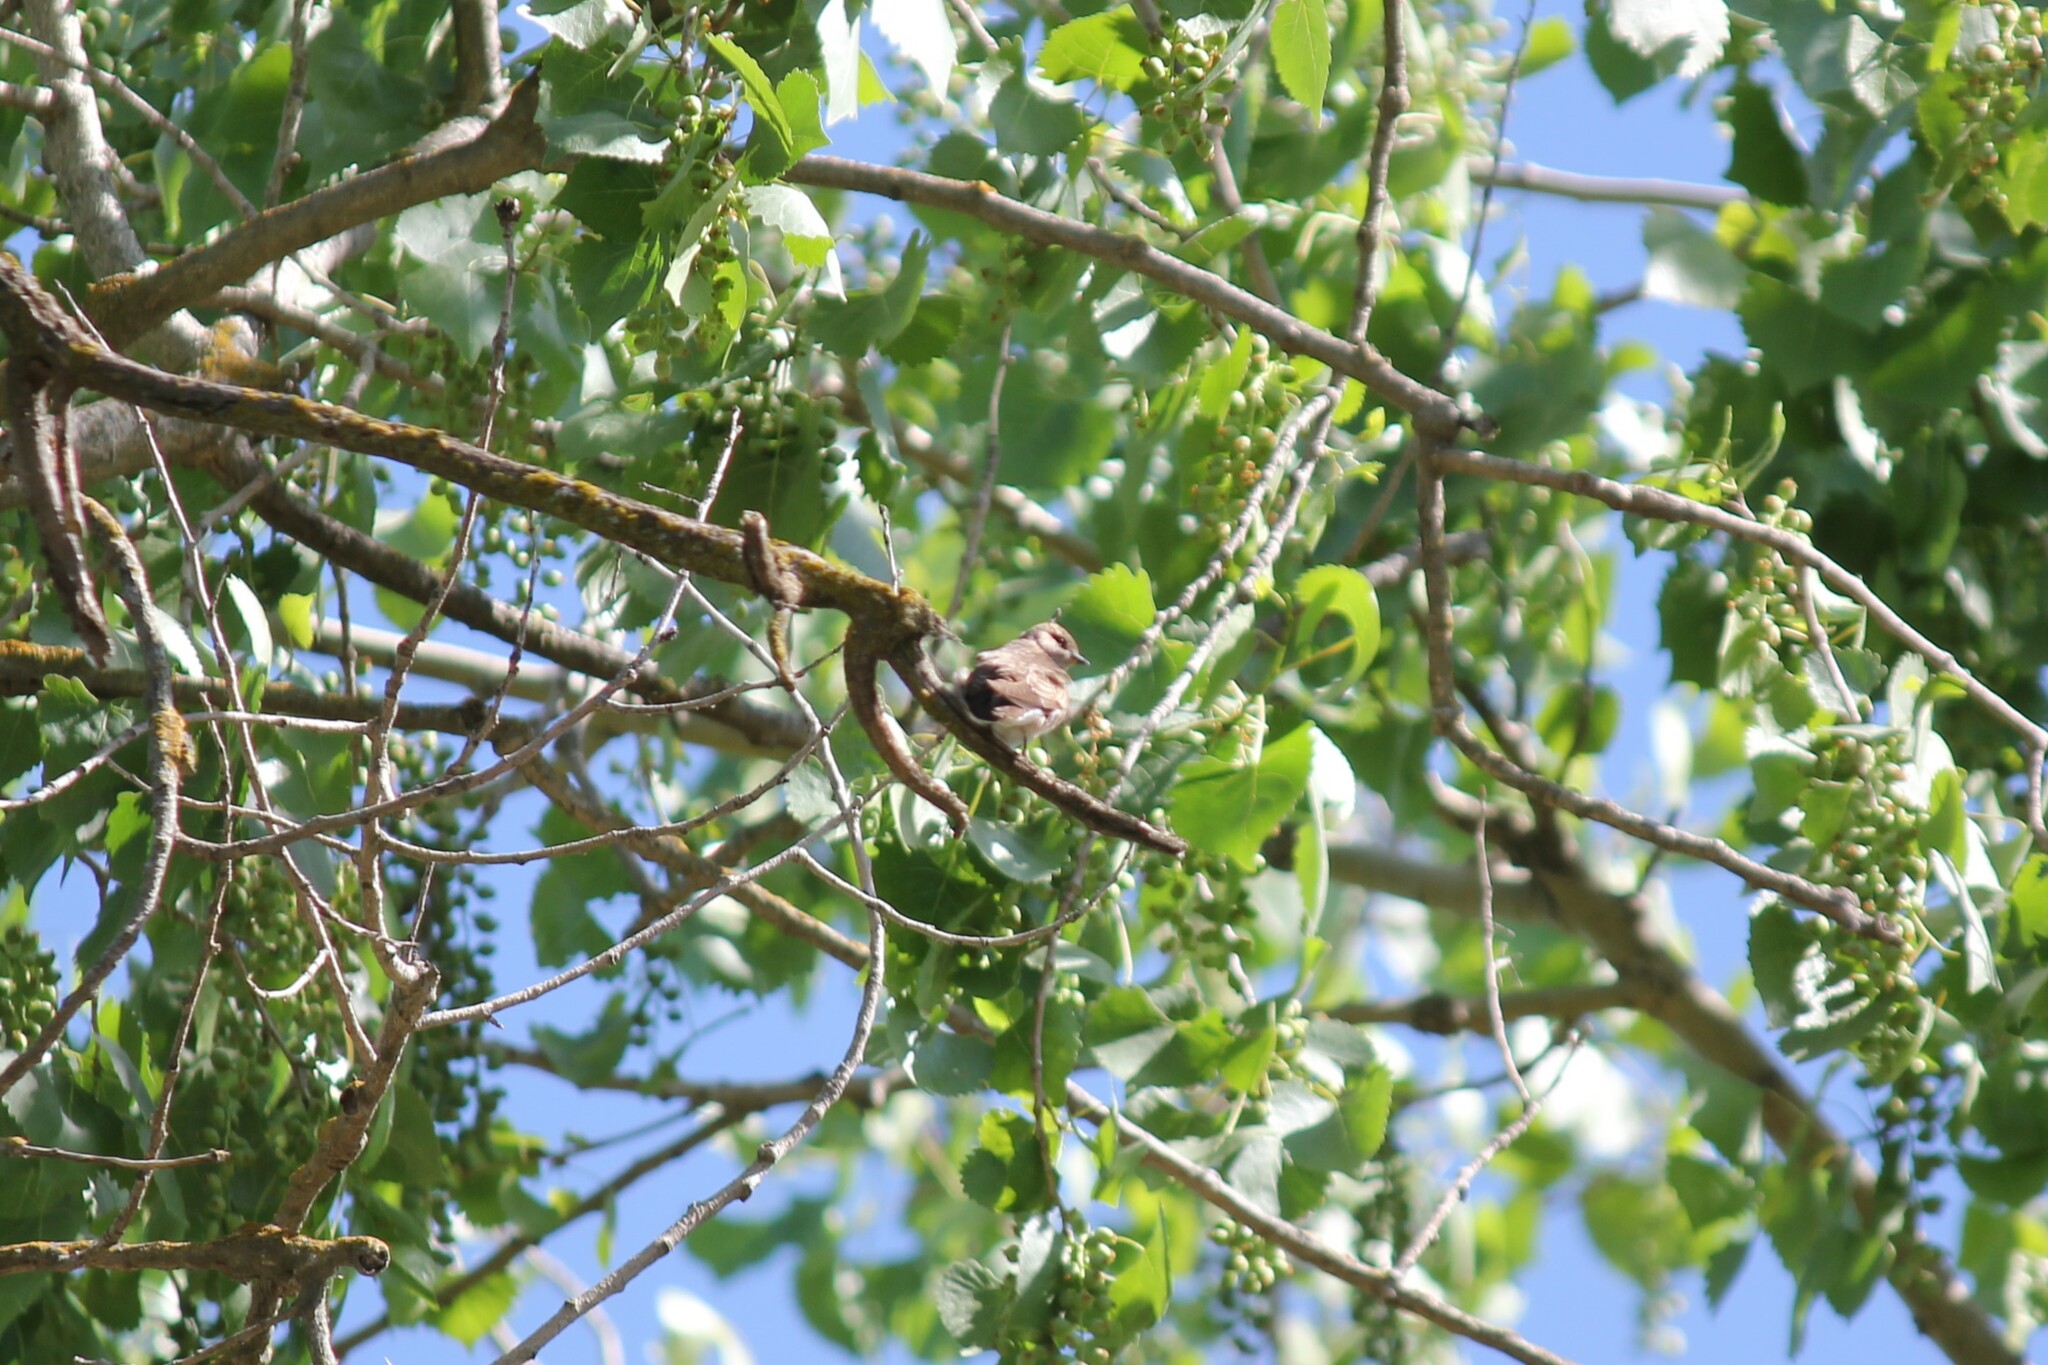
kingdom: Animalia
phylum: Chordata
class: Aves
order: Passeriformes
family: Hirundinidae
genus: Stelgidopteryx
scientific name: Stelgidopteryx serripennis
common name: Northern rough-winged swallow
